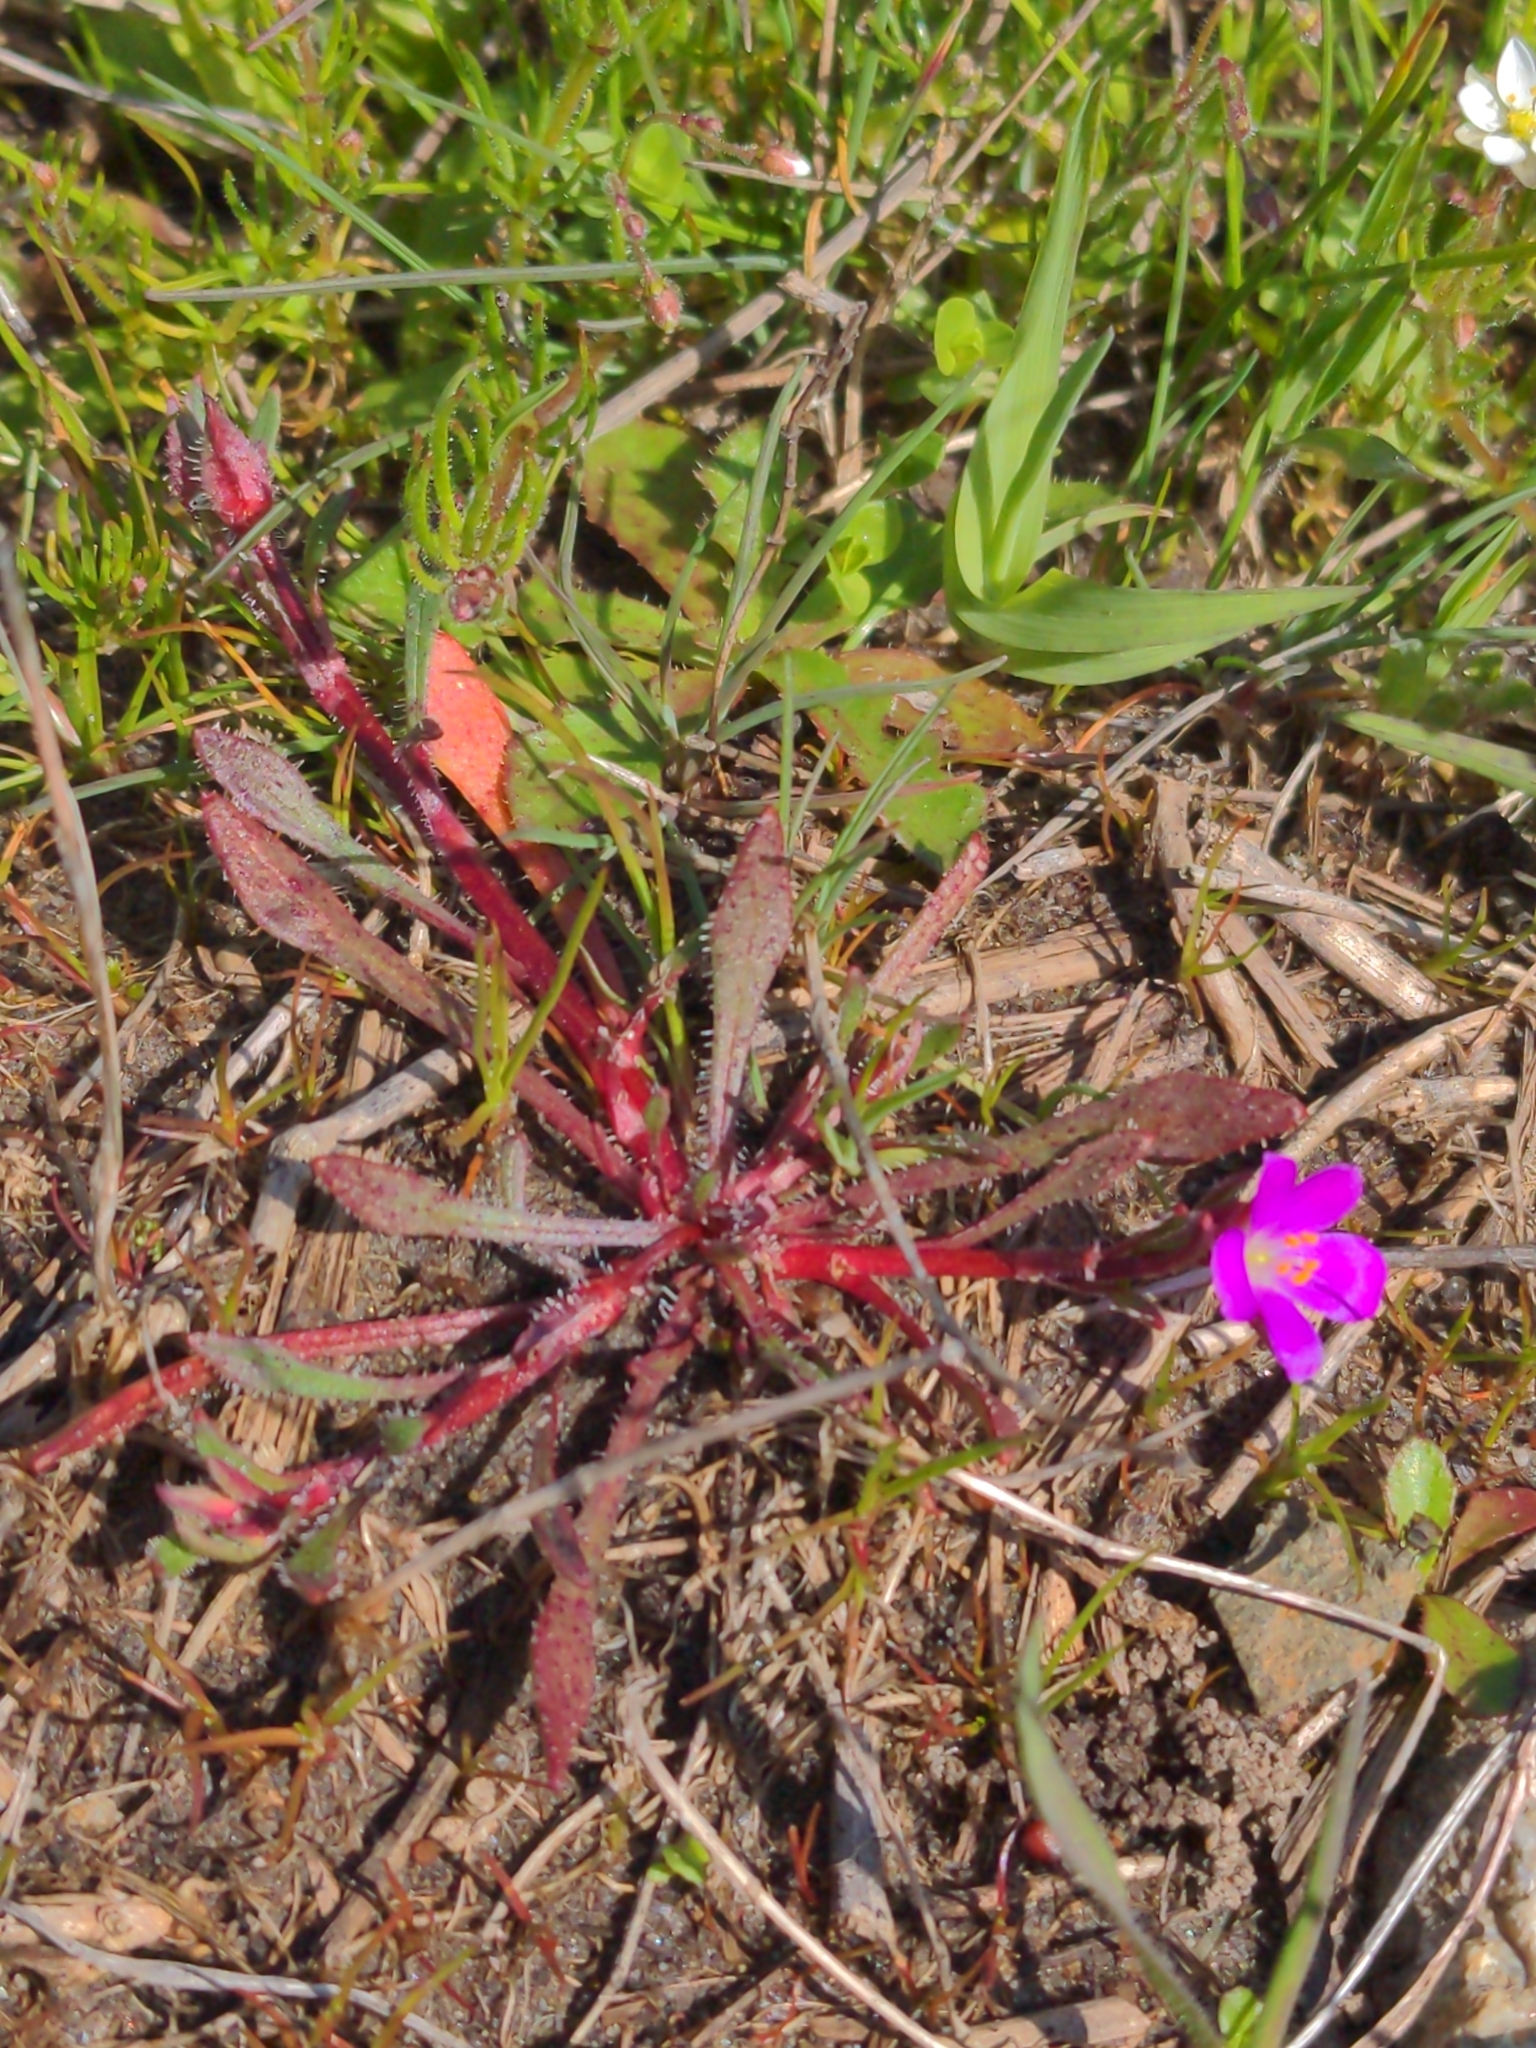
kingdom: Plantae
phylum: Tracheophyta
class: Magnoliopsida
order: Caryophyllales
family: Montiaceae
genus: Calandrinia
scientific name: Calandrinia menziesii
